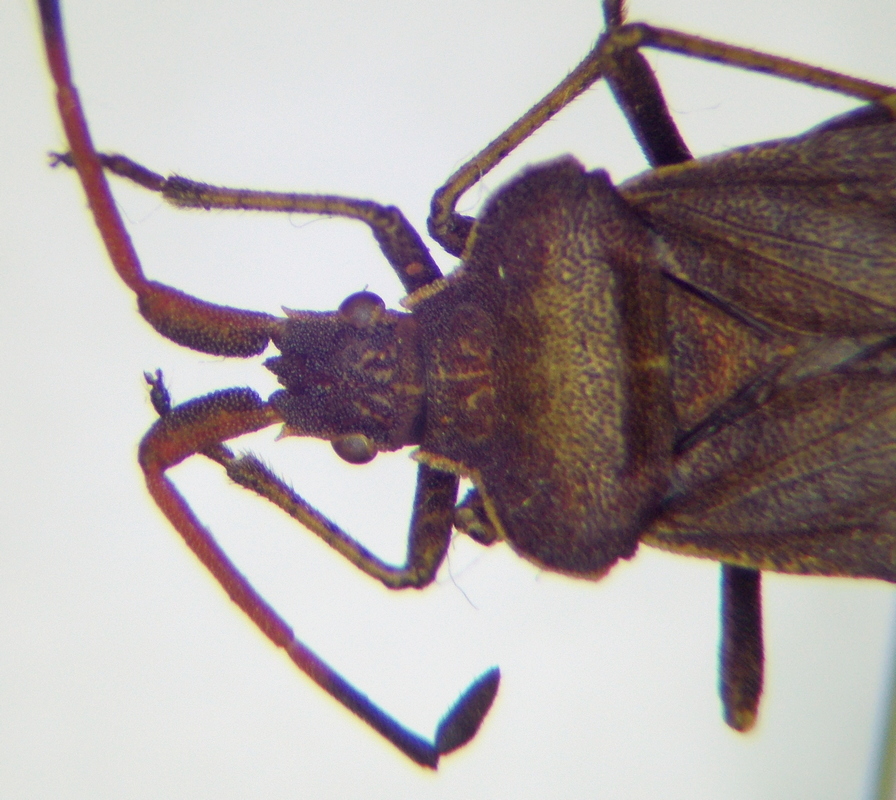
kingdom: Animalia
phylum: Arthropoda
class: Insecta
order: Hemiptera
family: Coreidae
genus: Enoplops
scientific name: Enoplops scapha
